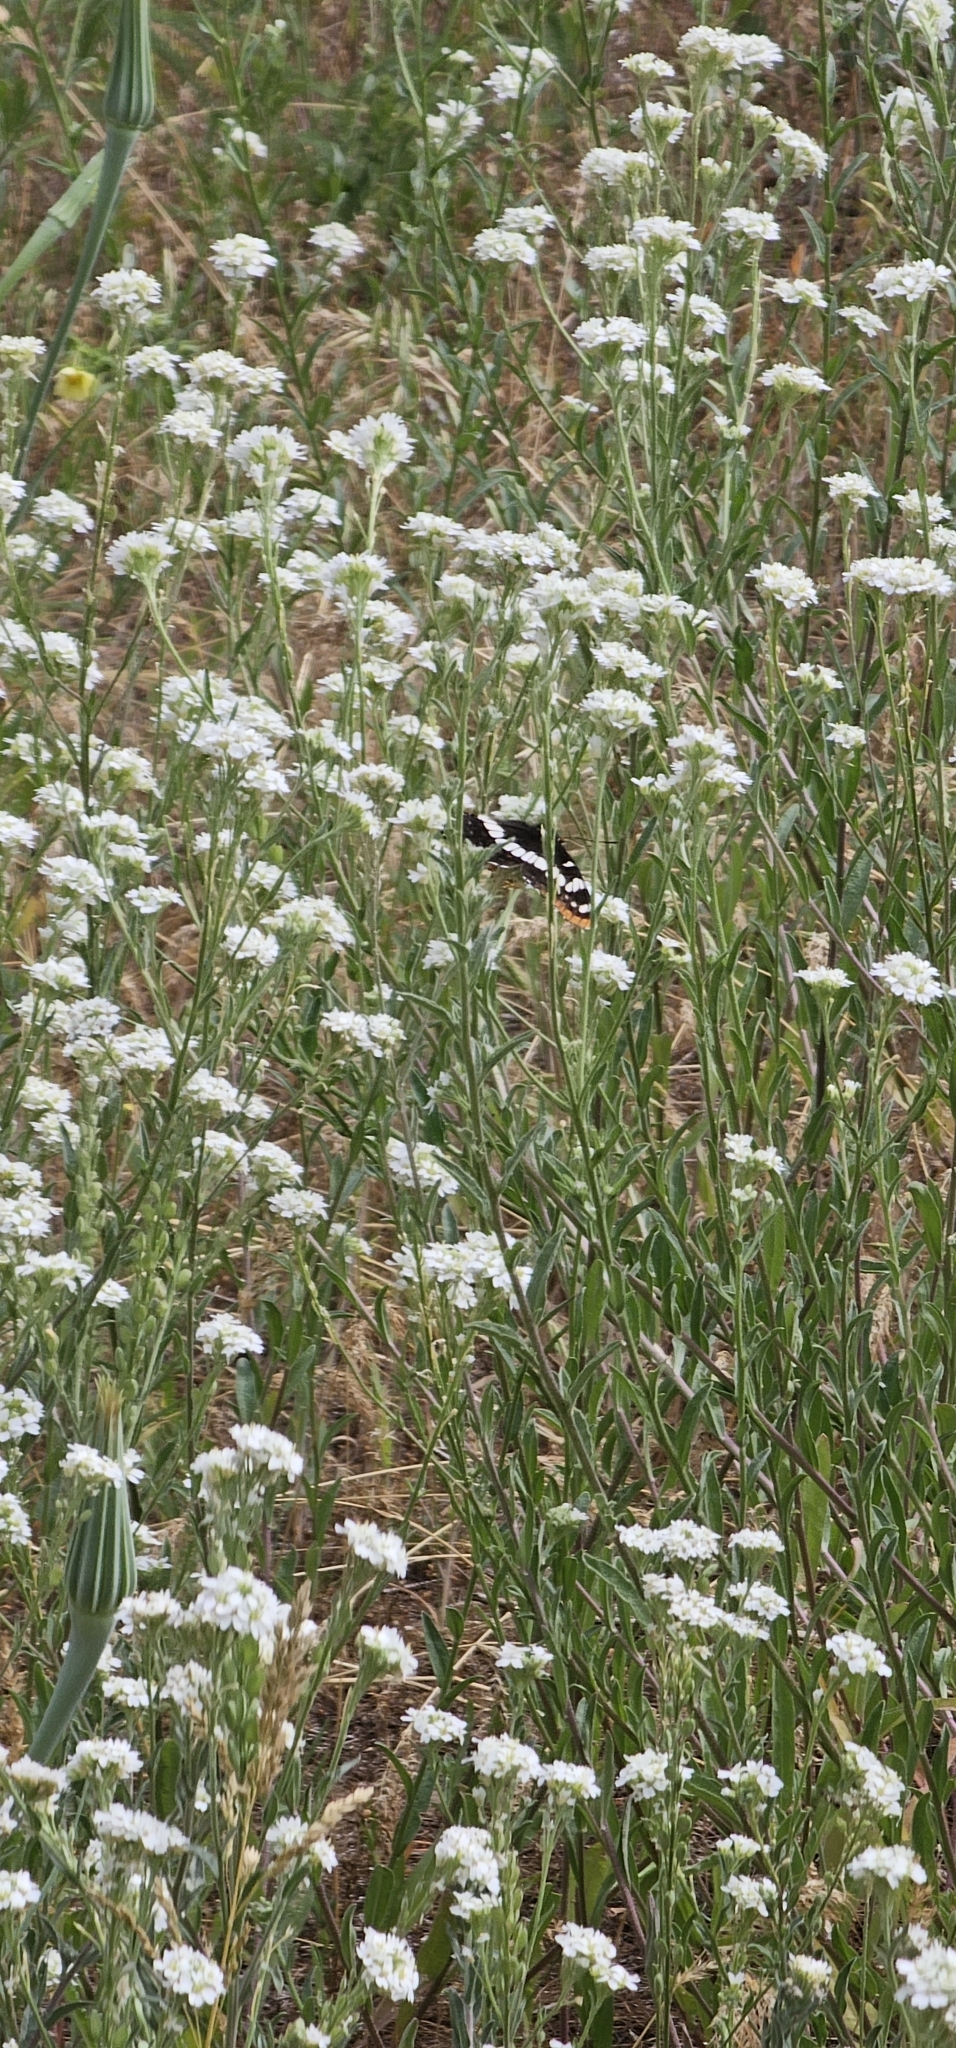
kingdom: Animalia
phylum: Arthropoda
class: Insecta
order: Lepidoptera
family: Nymphalidae
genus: Limenitis
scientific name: Limenitis lorquini
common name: Lorquin's admiral
